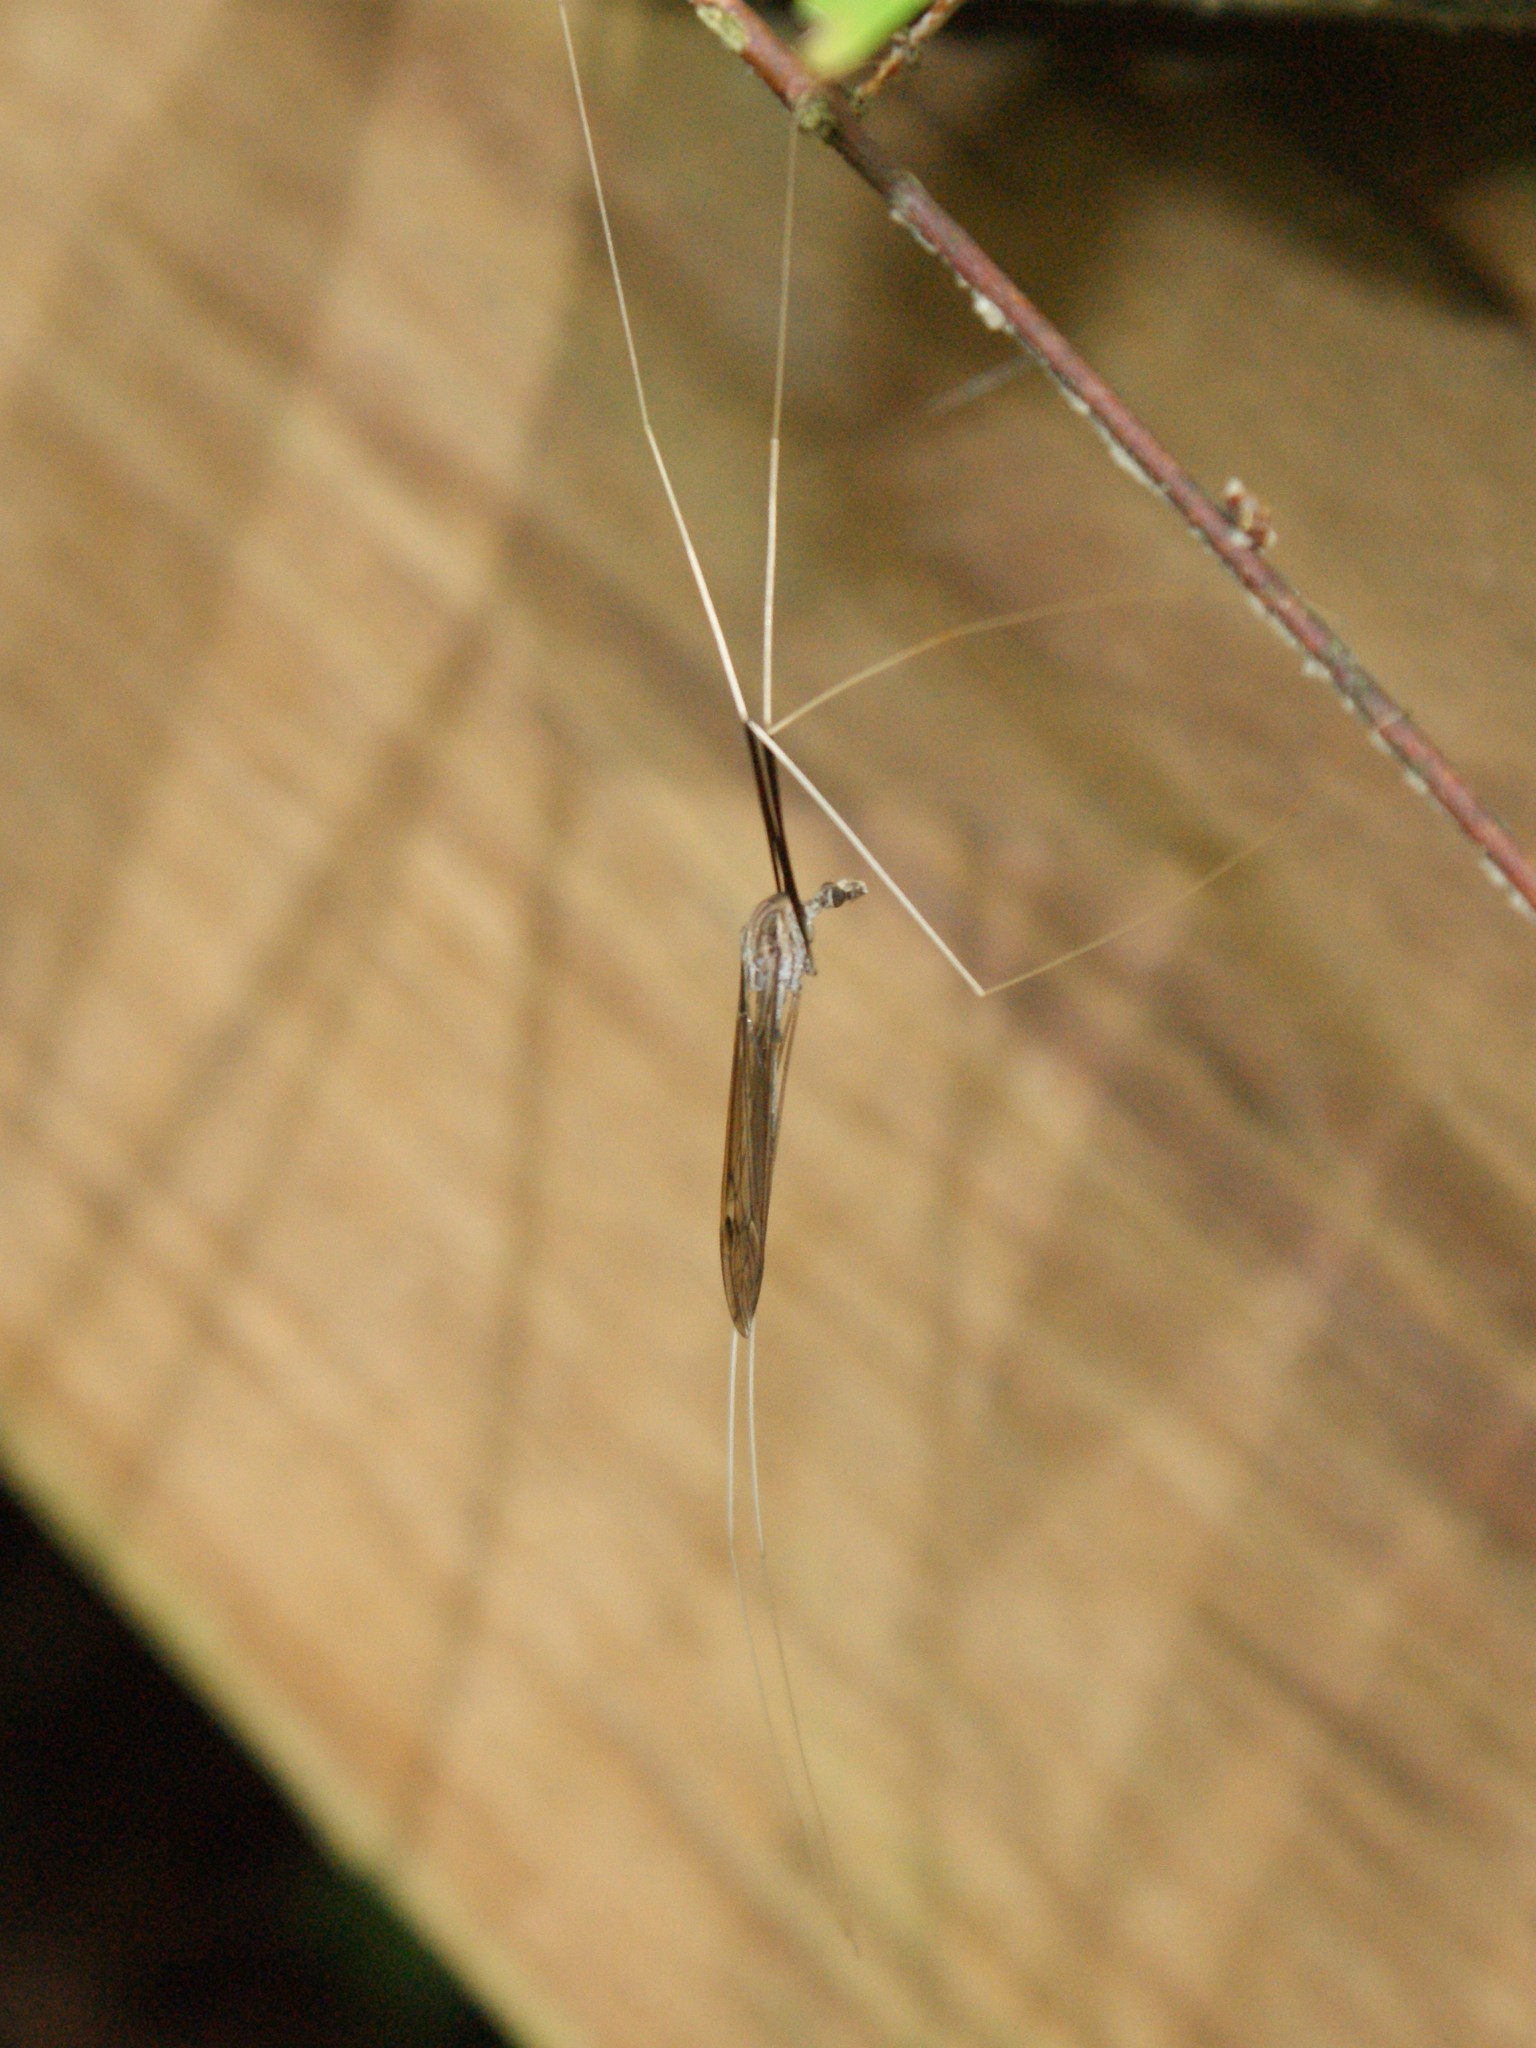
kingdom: Animalia
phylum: Arthropoda
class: Insecta
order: Diptera
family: Tipulidae
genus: Brachypremna
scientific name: Brachypremna dispellens
